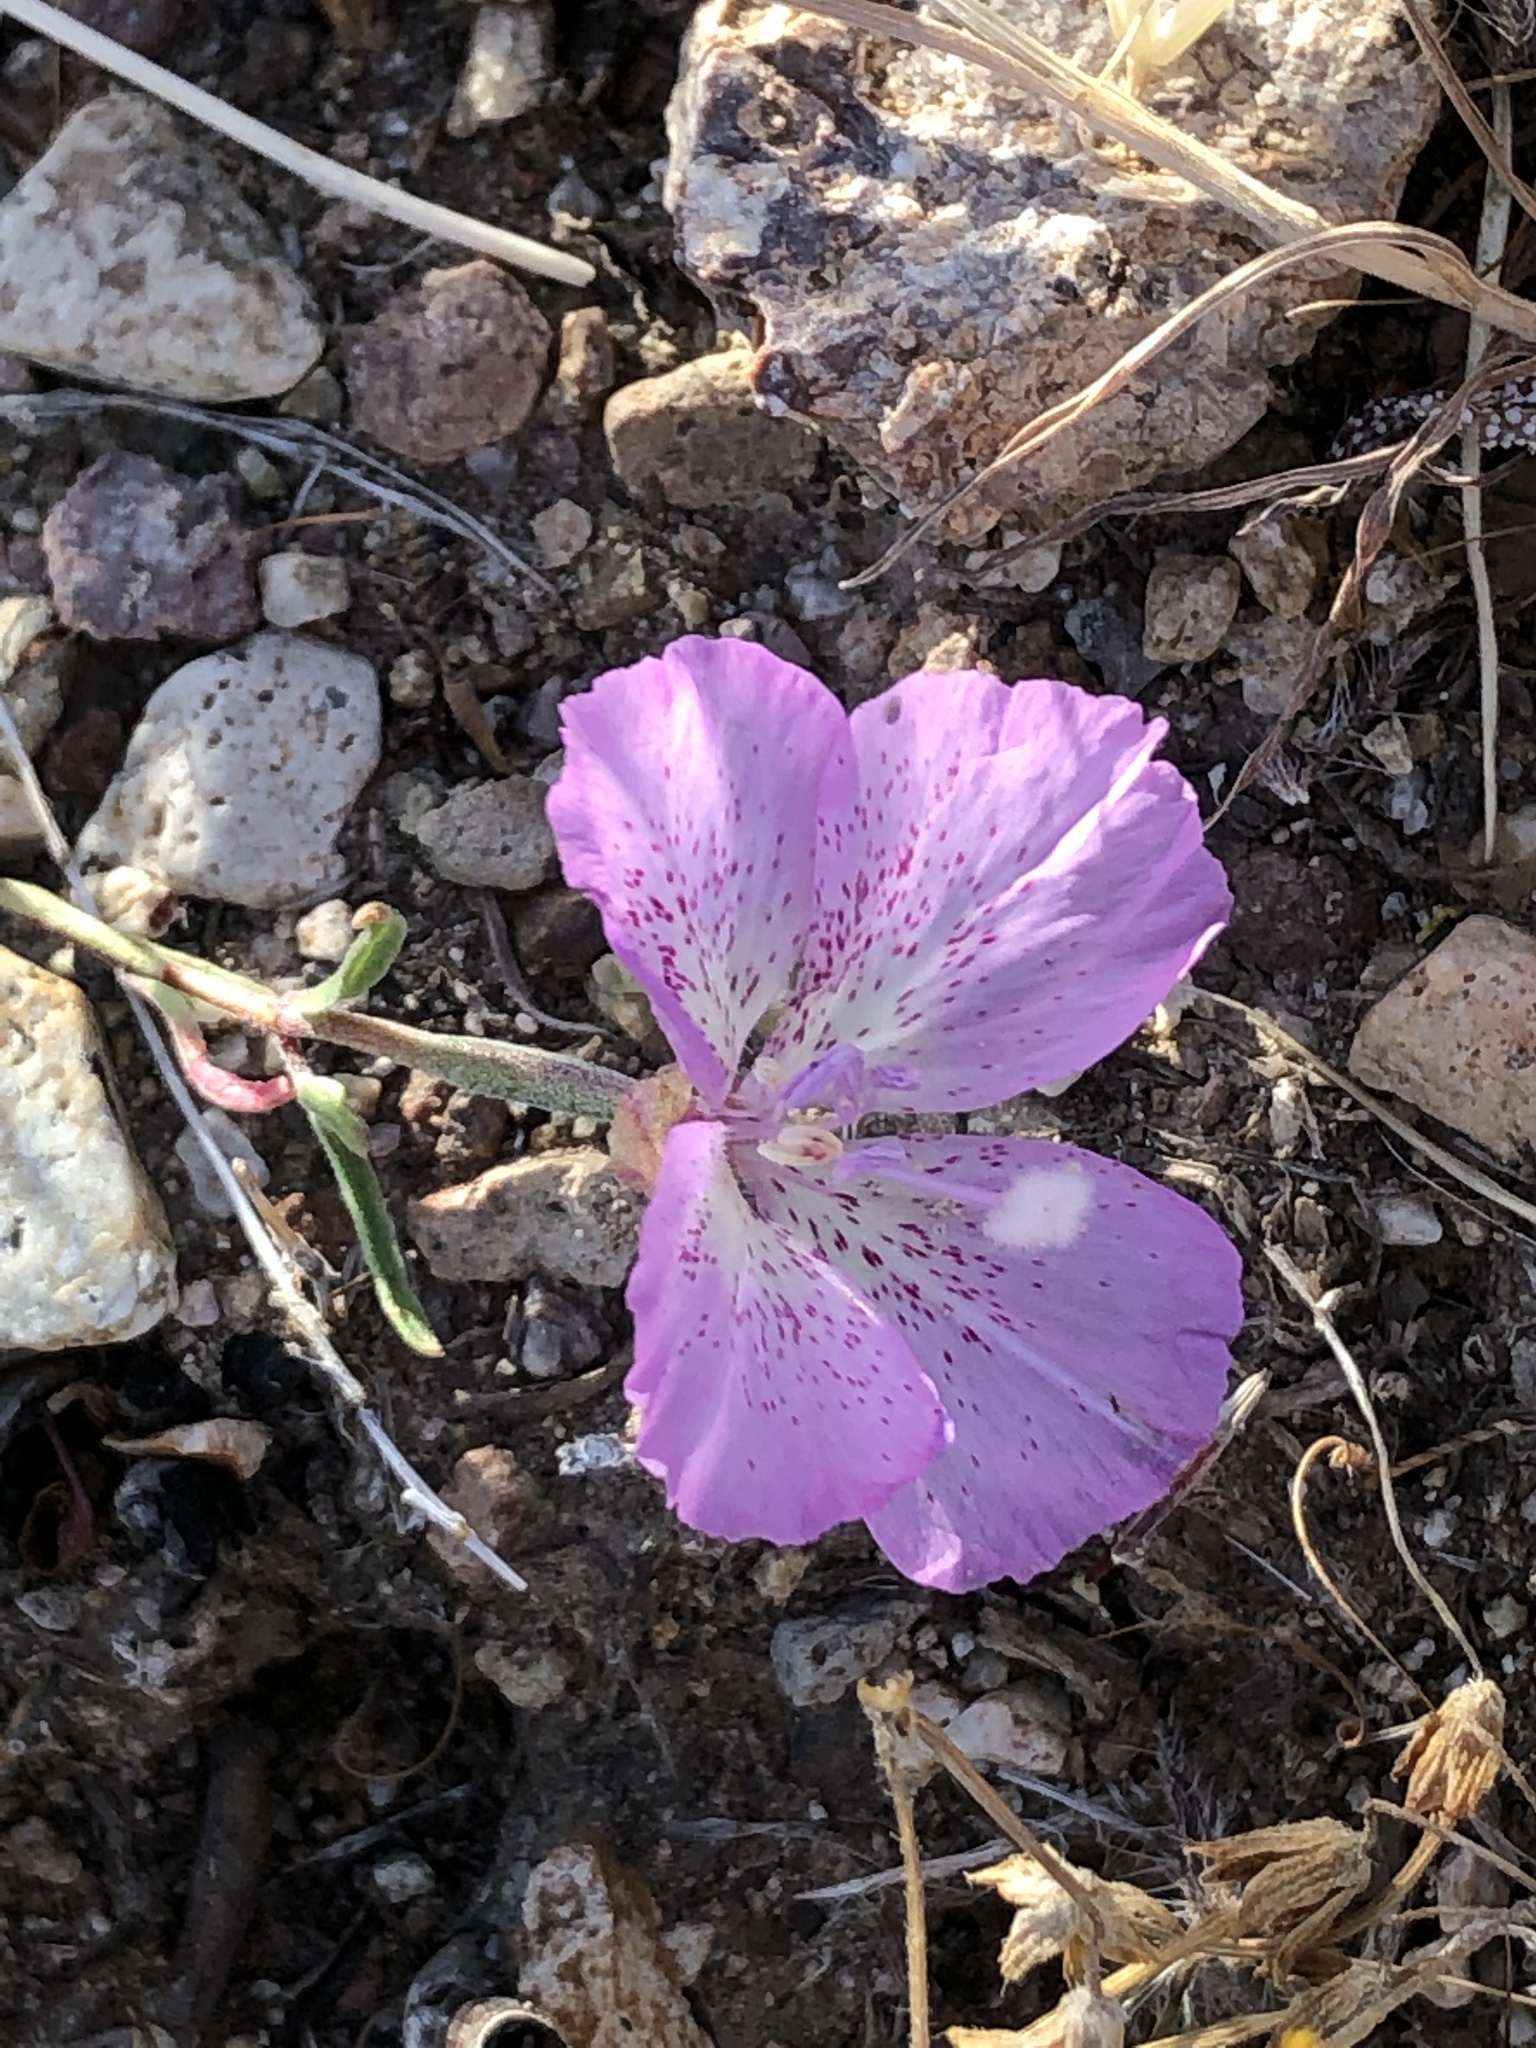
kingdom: Plantae
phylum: Tracheophyta
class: Magnoliopsida
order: Myrtales
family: Onagraceae
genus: Clarkia
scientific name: Clarkia bottae
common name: Punch-bowl godetia
